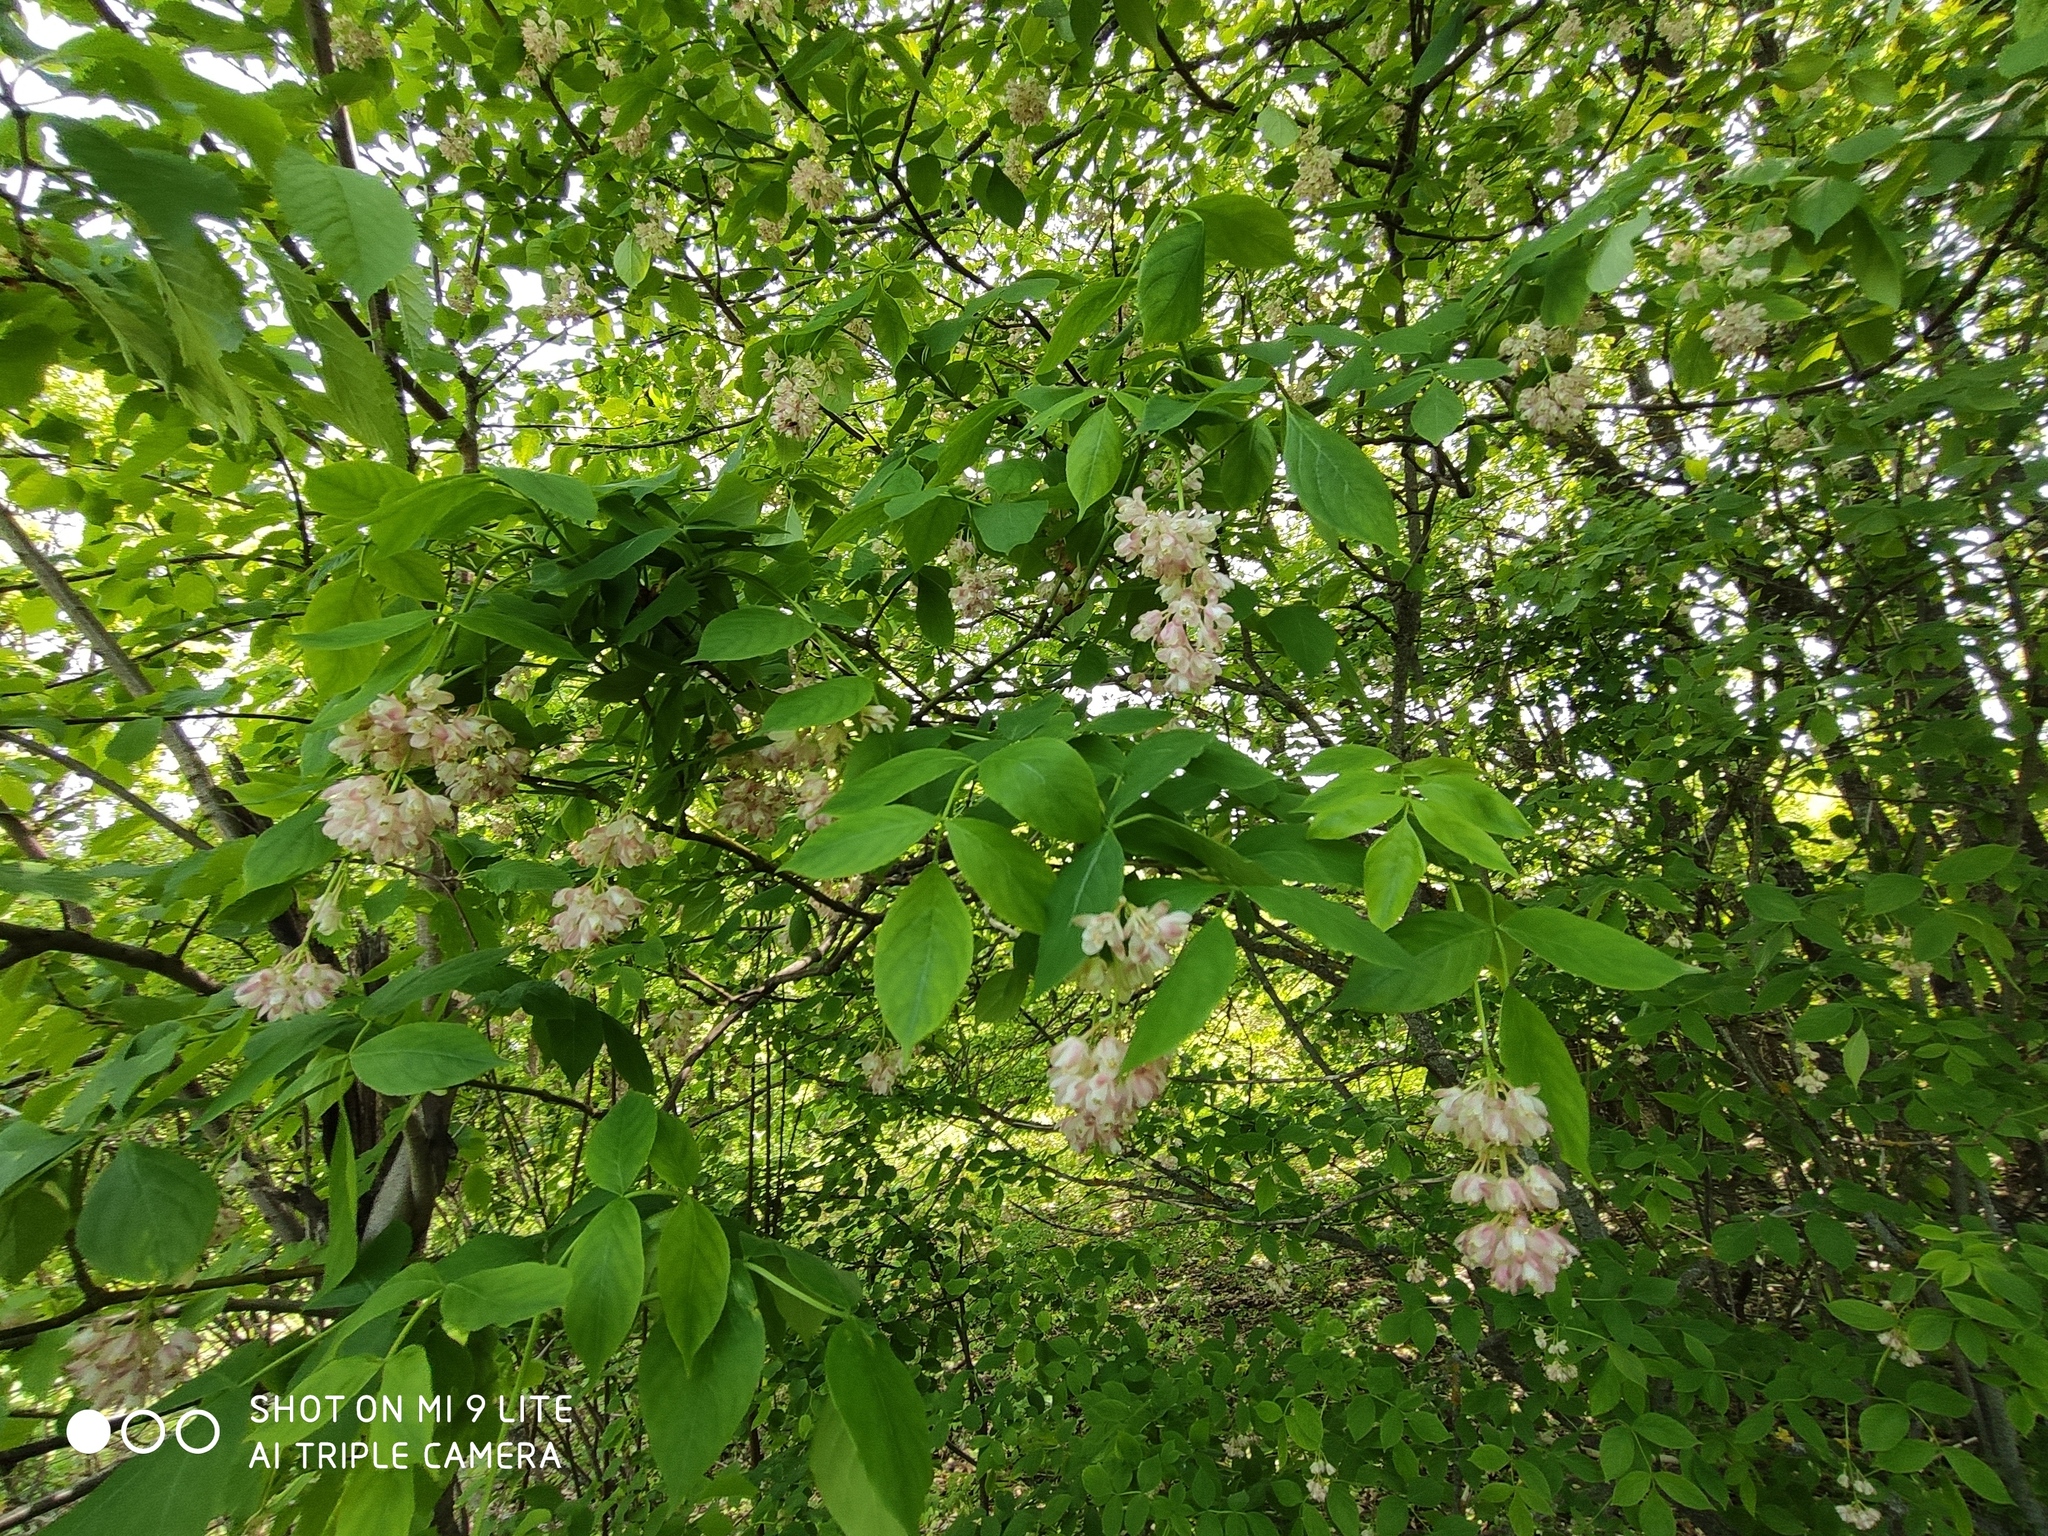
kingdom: Plantae
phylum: Tracheophyta
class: Magnoliopsida
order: Crossosomatales
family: Staphyleaceae
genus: Staphylea
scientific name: Staphylea pinnata
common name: Bladdernut
